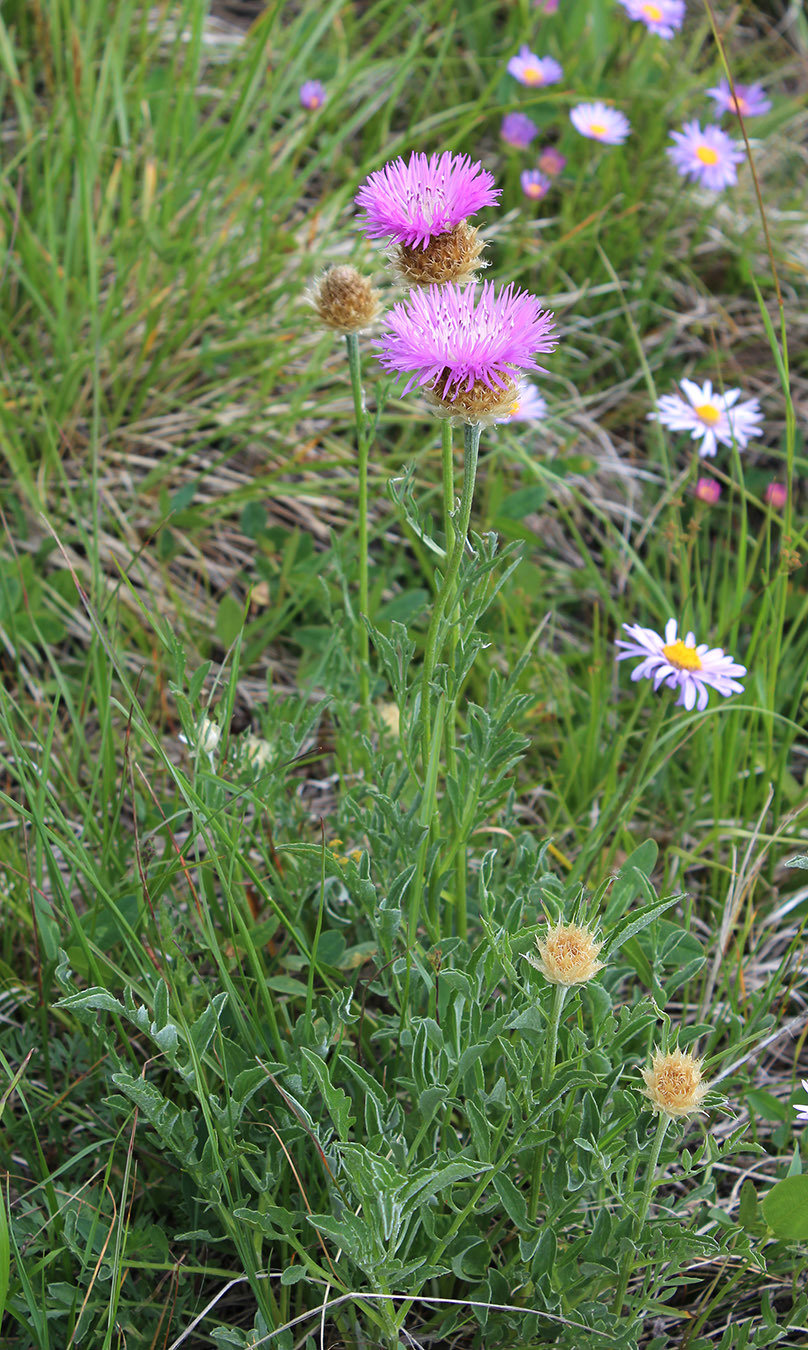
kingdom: Plantae
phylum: Tracheophyta
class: Magnoliopsida
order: Asterales
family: Asteraceae
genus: Psephellus
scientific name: Psephellus caucasicus
